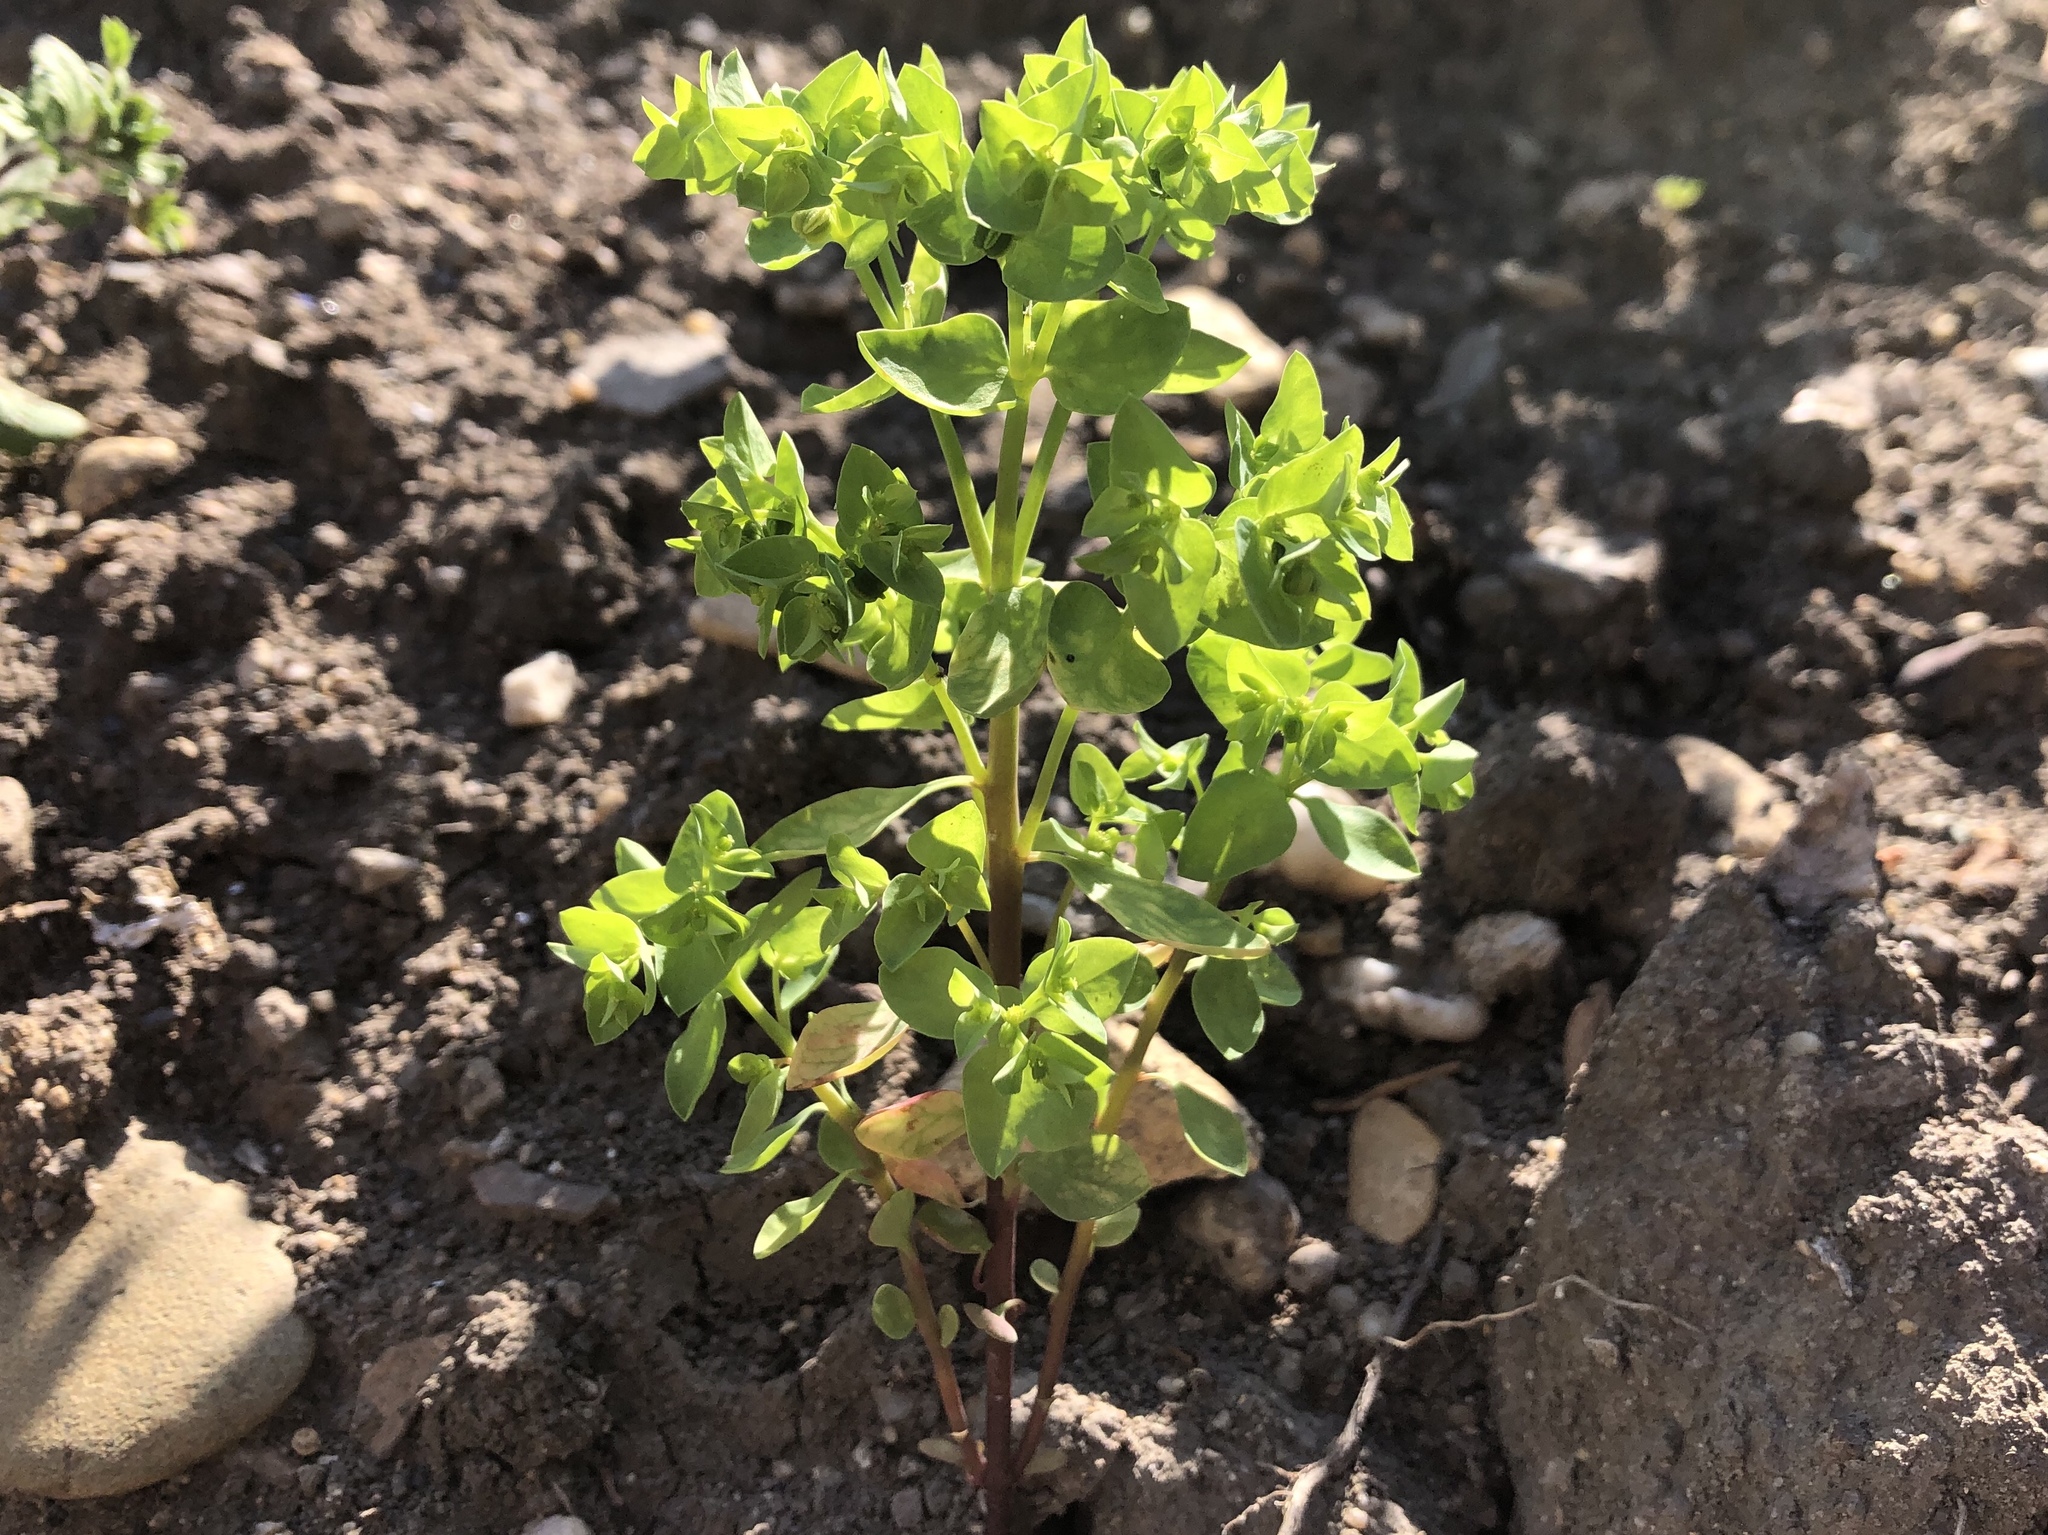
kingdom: Plantae
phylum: Tracheophyta
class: Magnoliopsida
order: Malpighiales
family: Euphorbiaceae
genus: Euphorbia
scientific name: Euphorbia peplus
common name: Petty spurge
